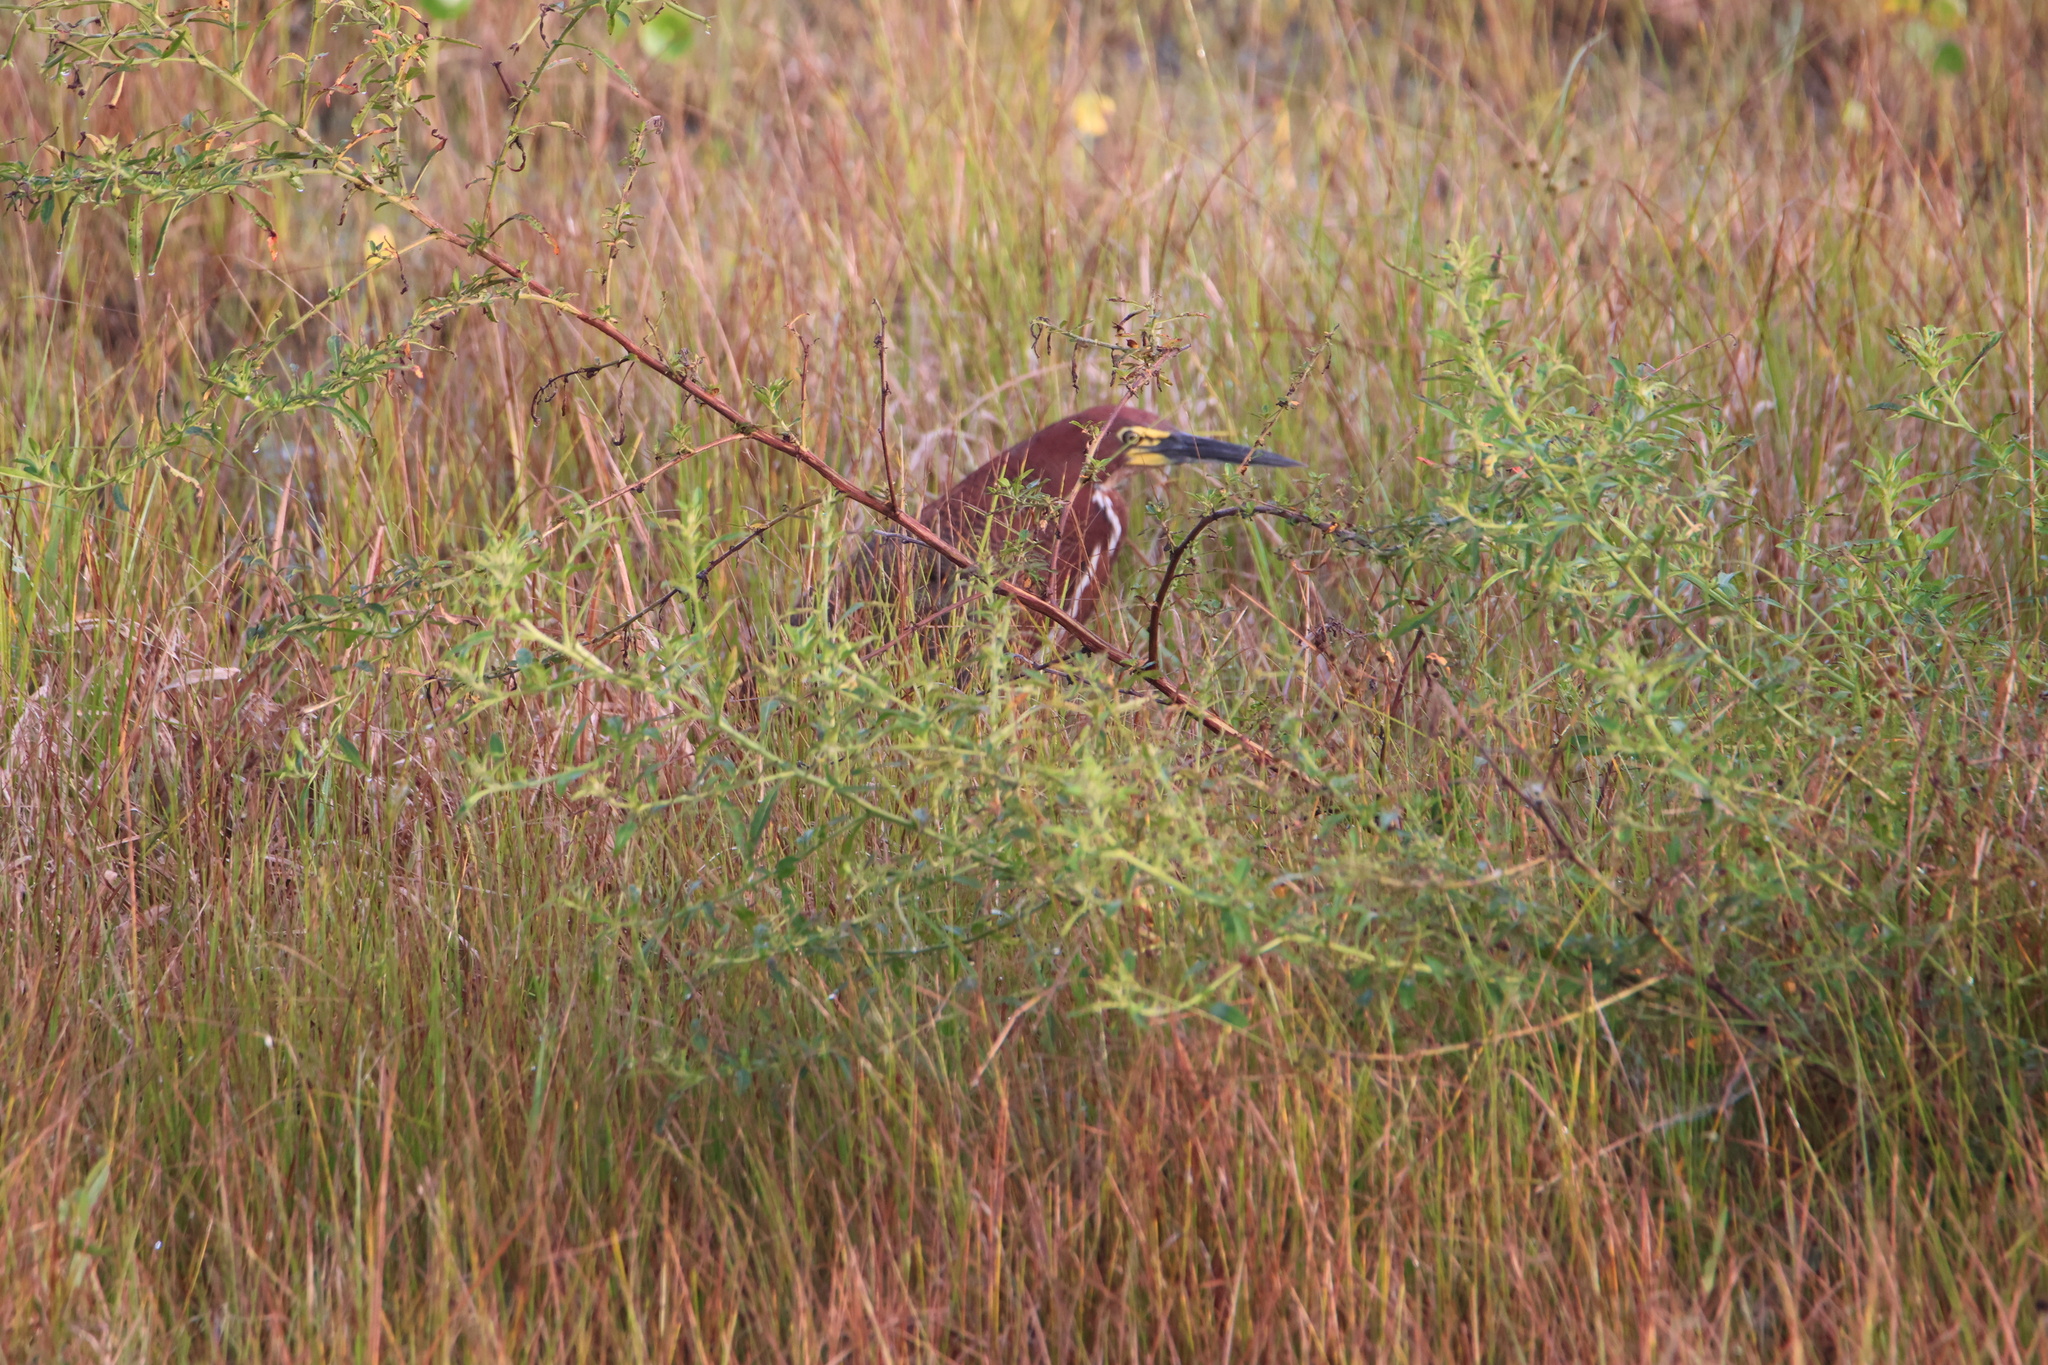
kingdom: Animalia
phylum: Chordata
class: Aves
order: Pelecaniformes
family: Ardeidae
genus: Tigrisoma
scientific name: Tigrisoma lineatum
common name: Rufescent tiger-heron
